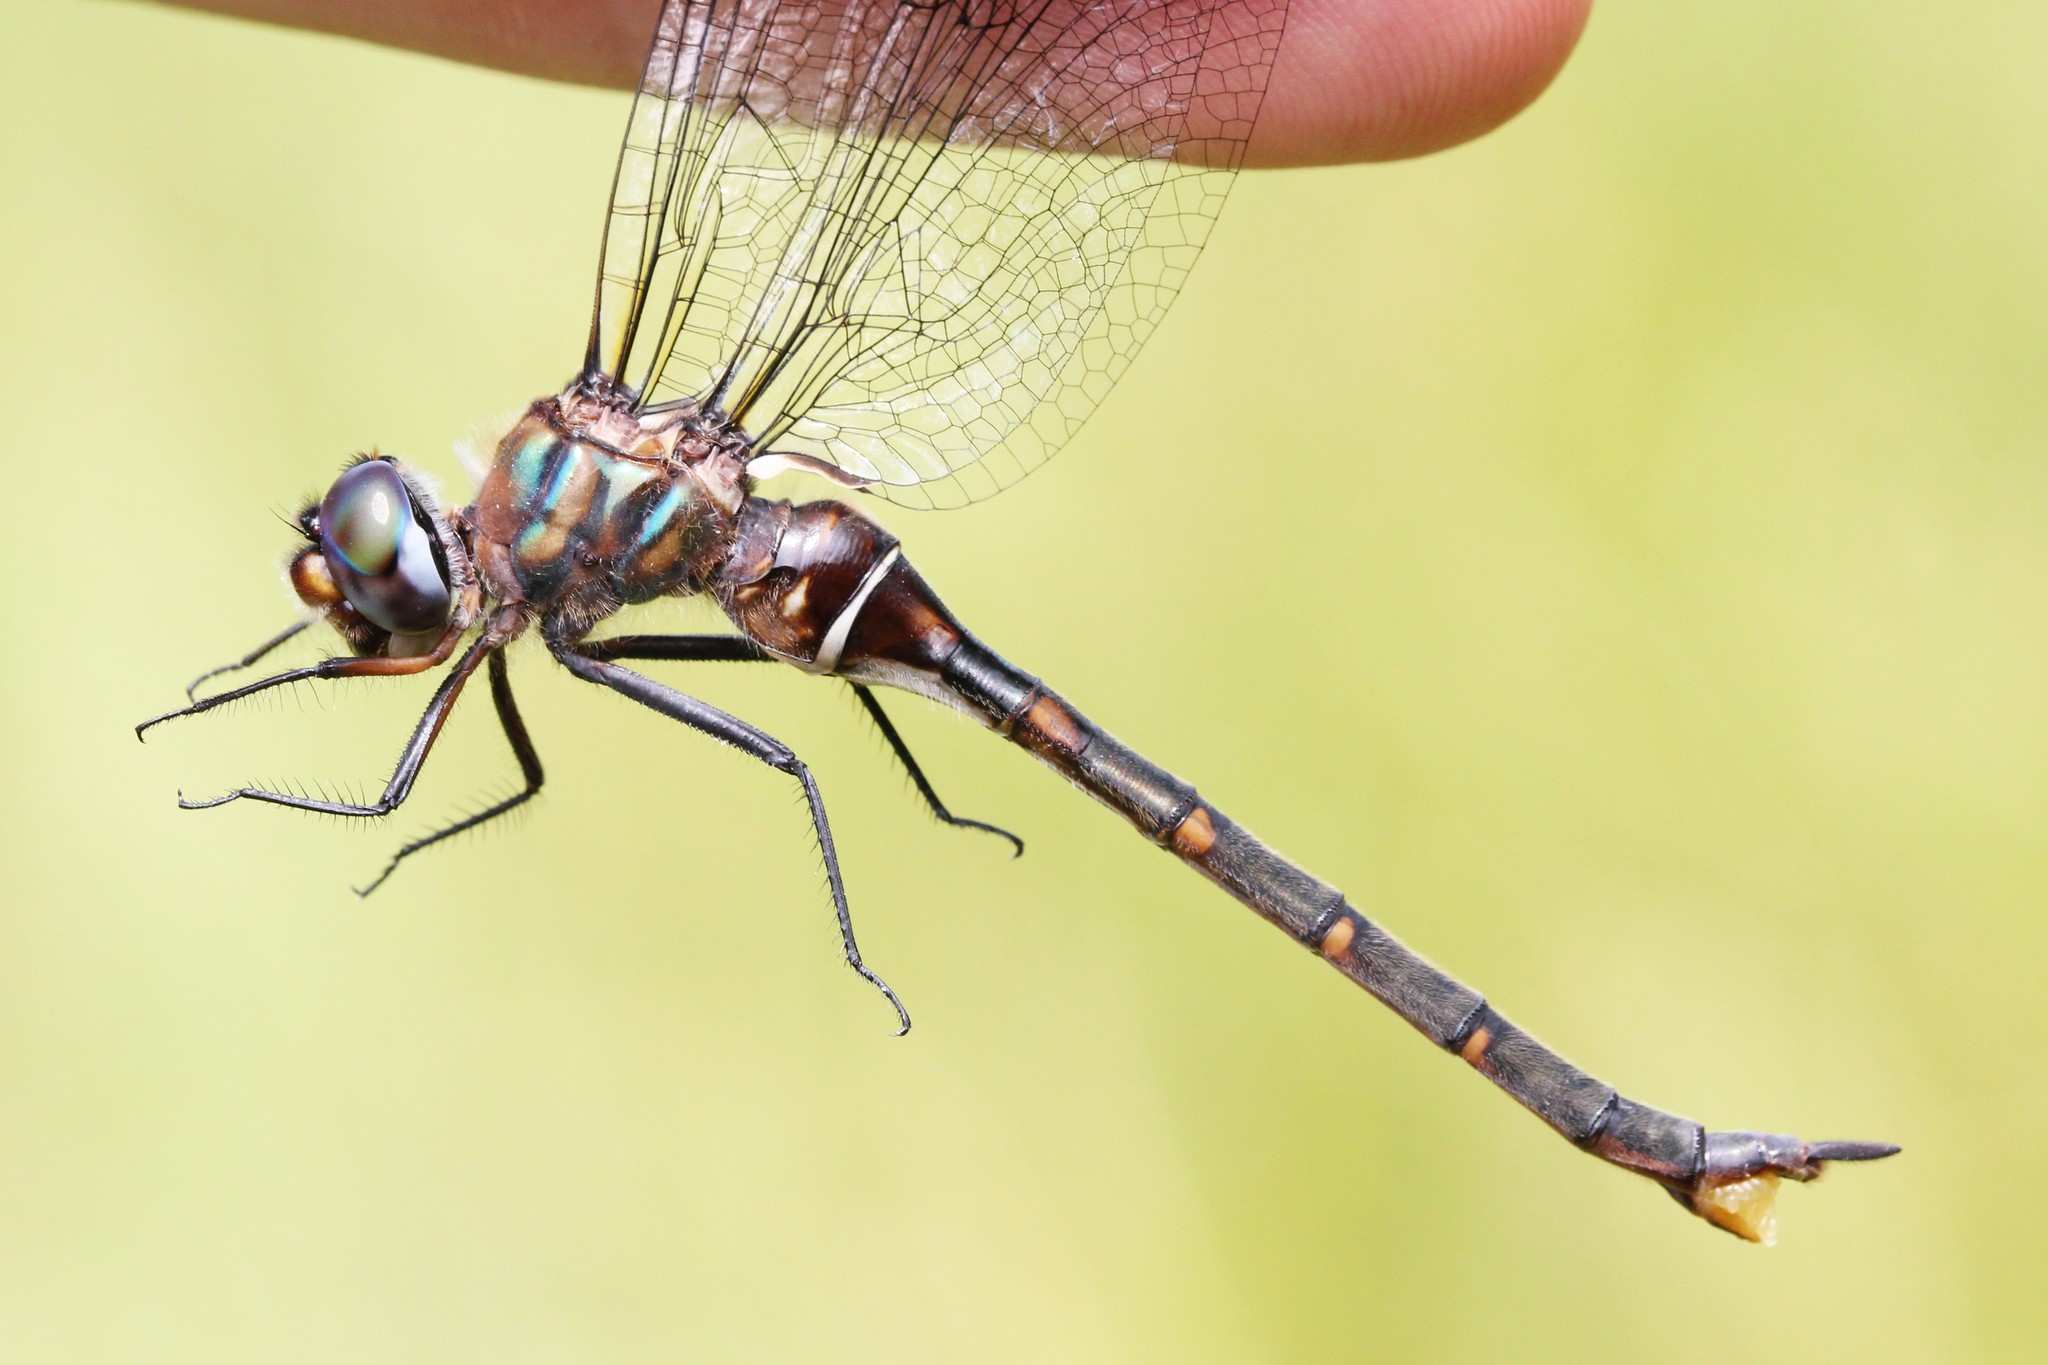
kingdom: Animalia
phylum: Arthropoda
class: Insecta
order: Odonata
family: Corduliidae
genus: Somatochlora
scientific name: Somatochlora incurvata
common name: Incurvate emerald
